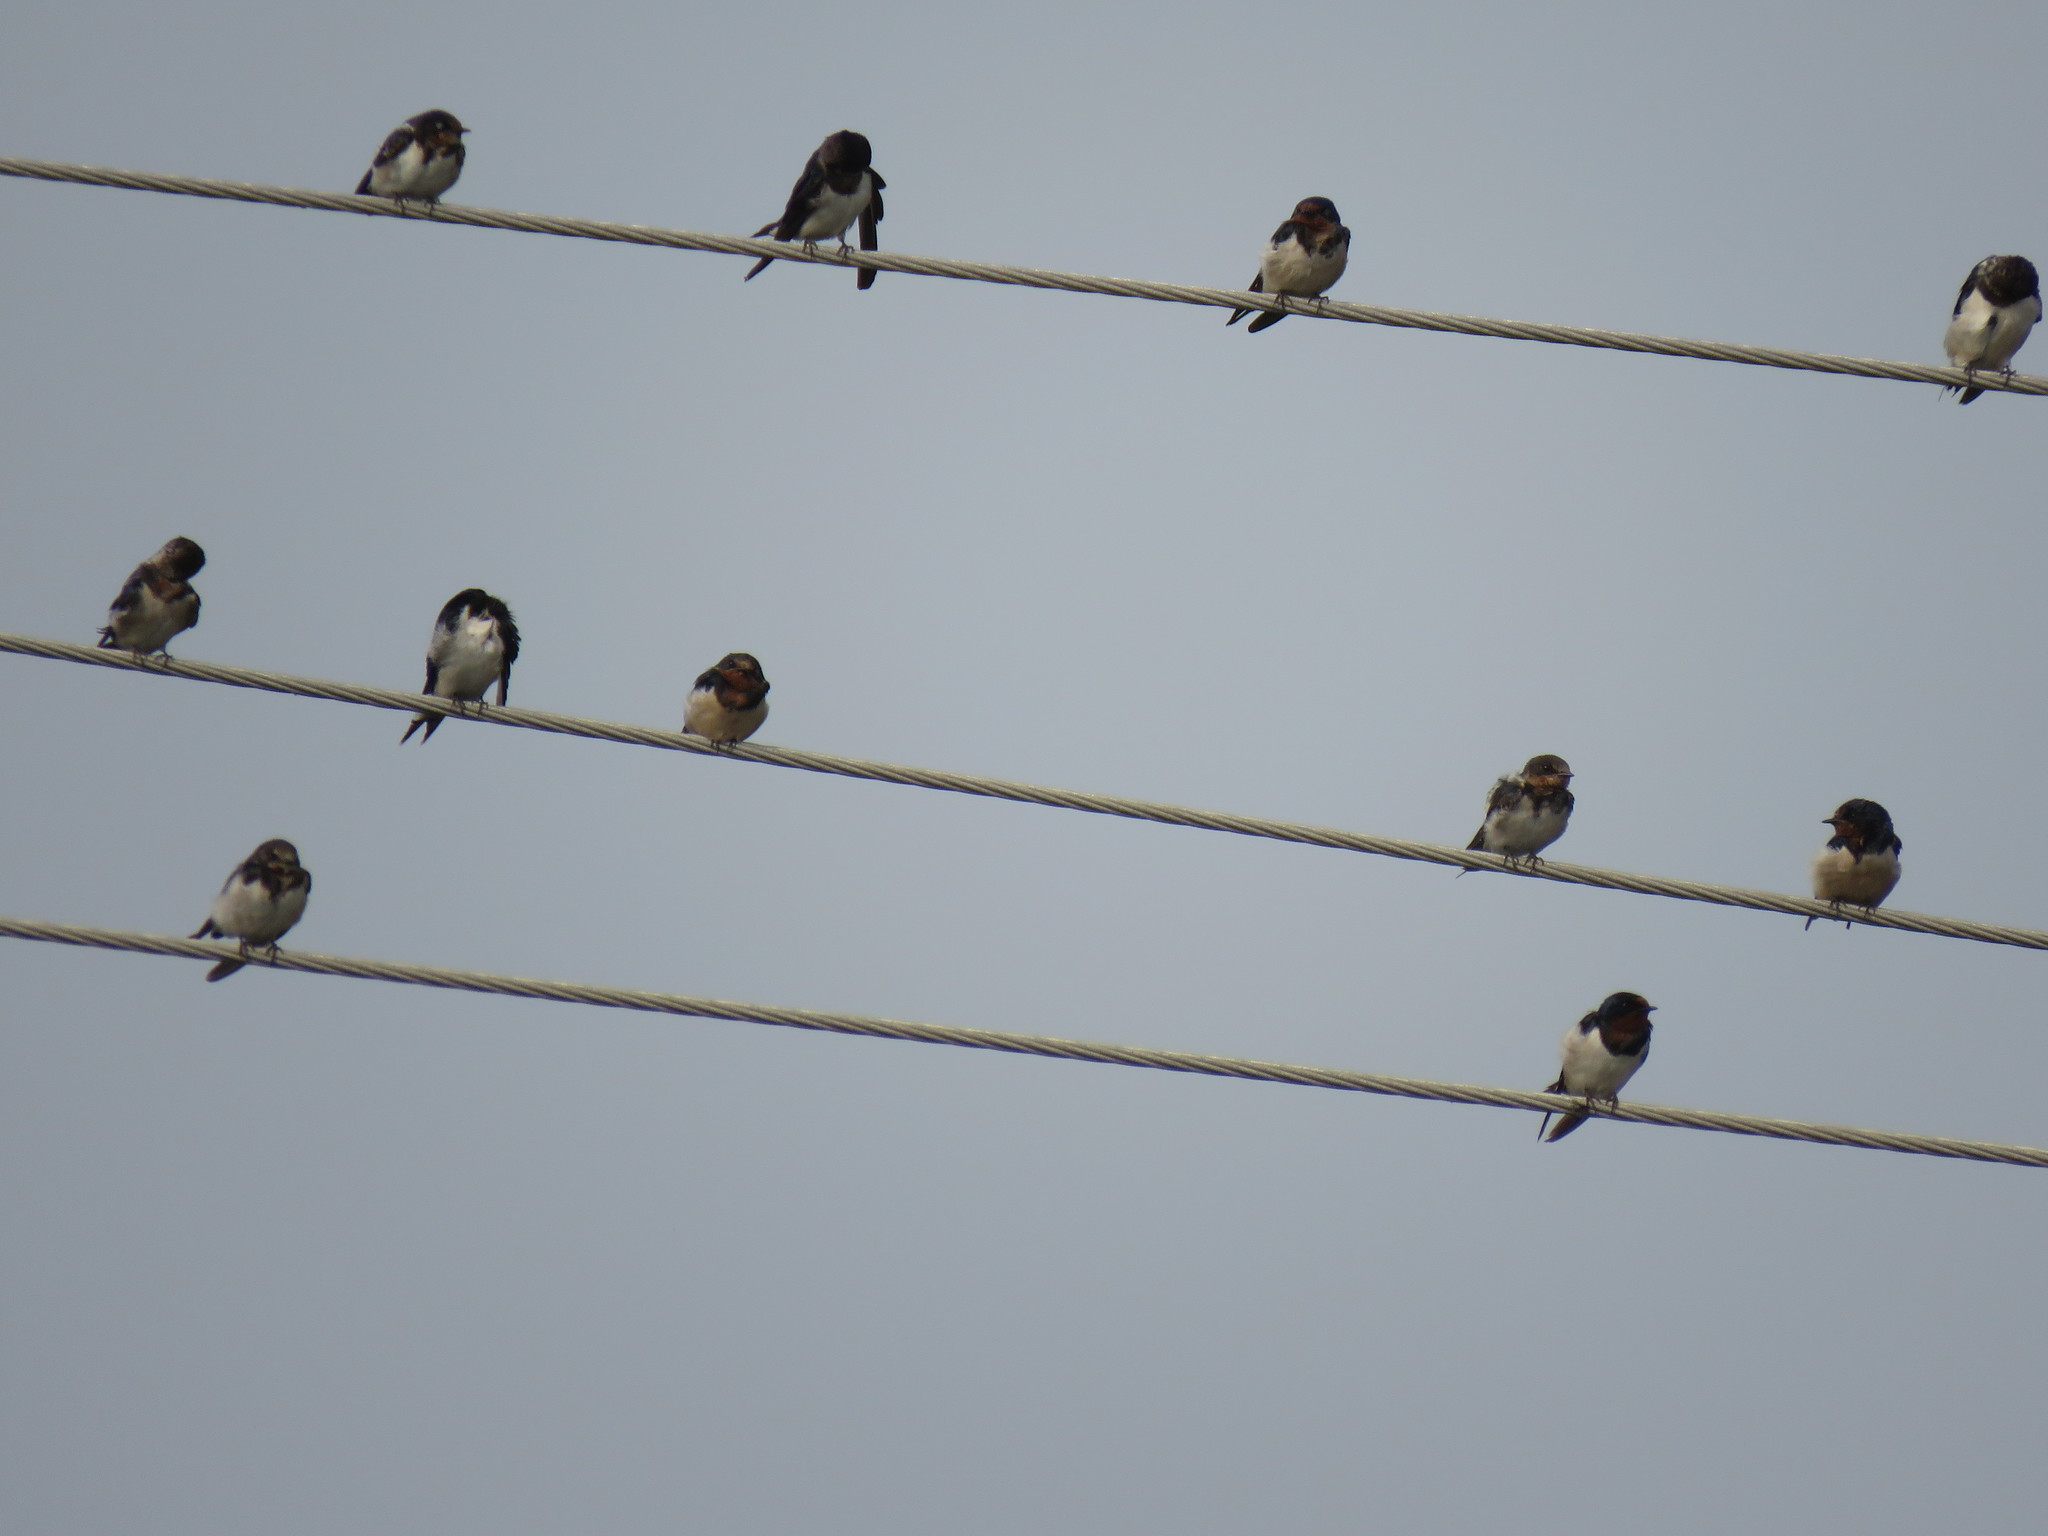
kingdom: Animalia
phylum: Chordata
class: Aves
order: Passeriformes
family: Hirundinidae
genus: Hirundo
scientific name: Hirundo rustica
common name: Barn swallow
